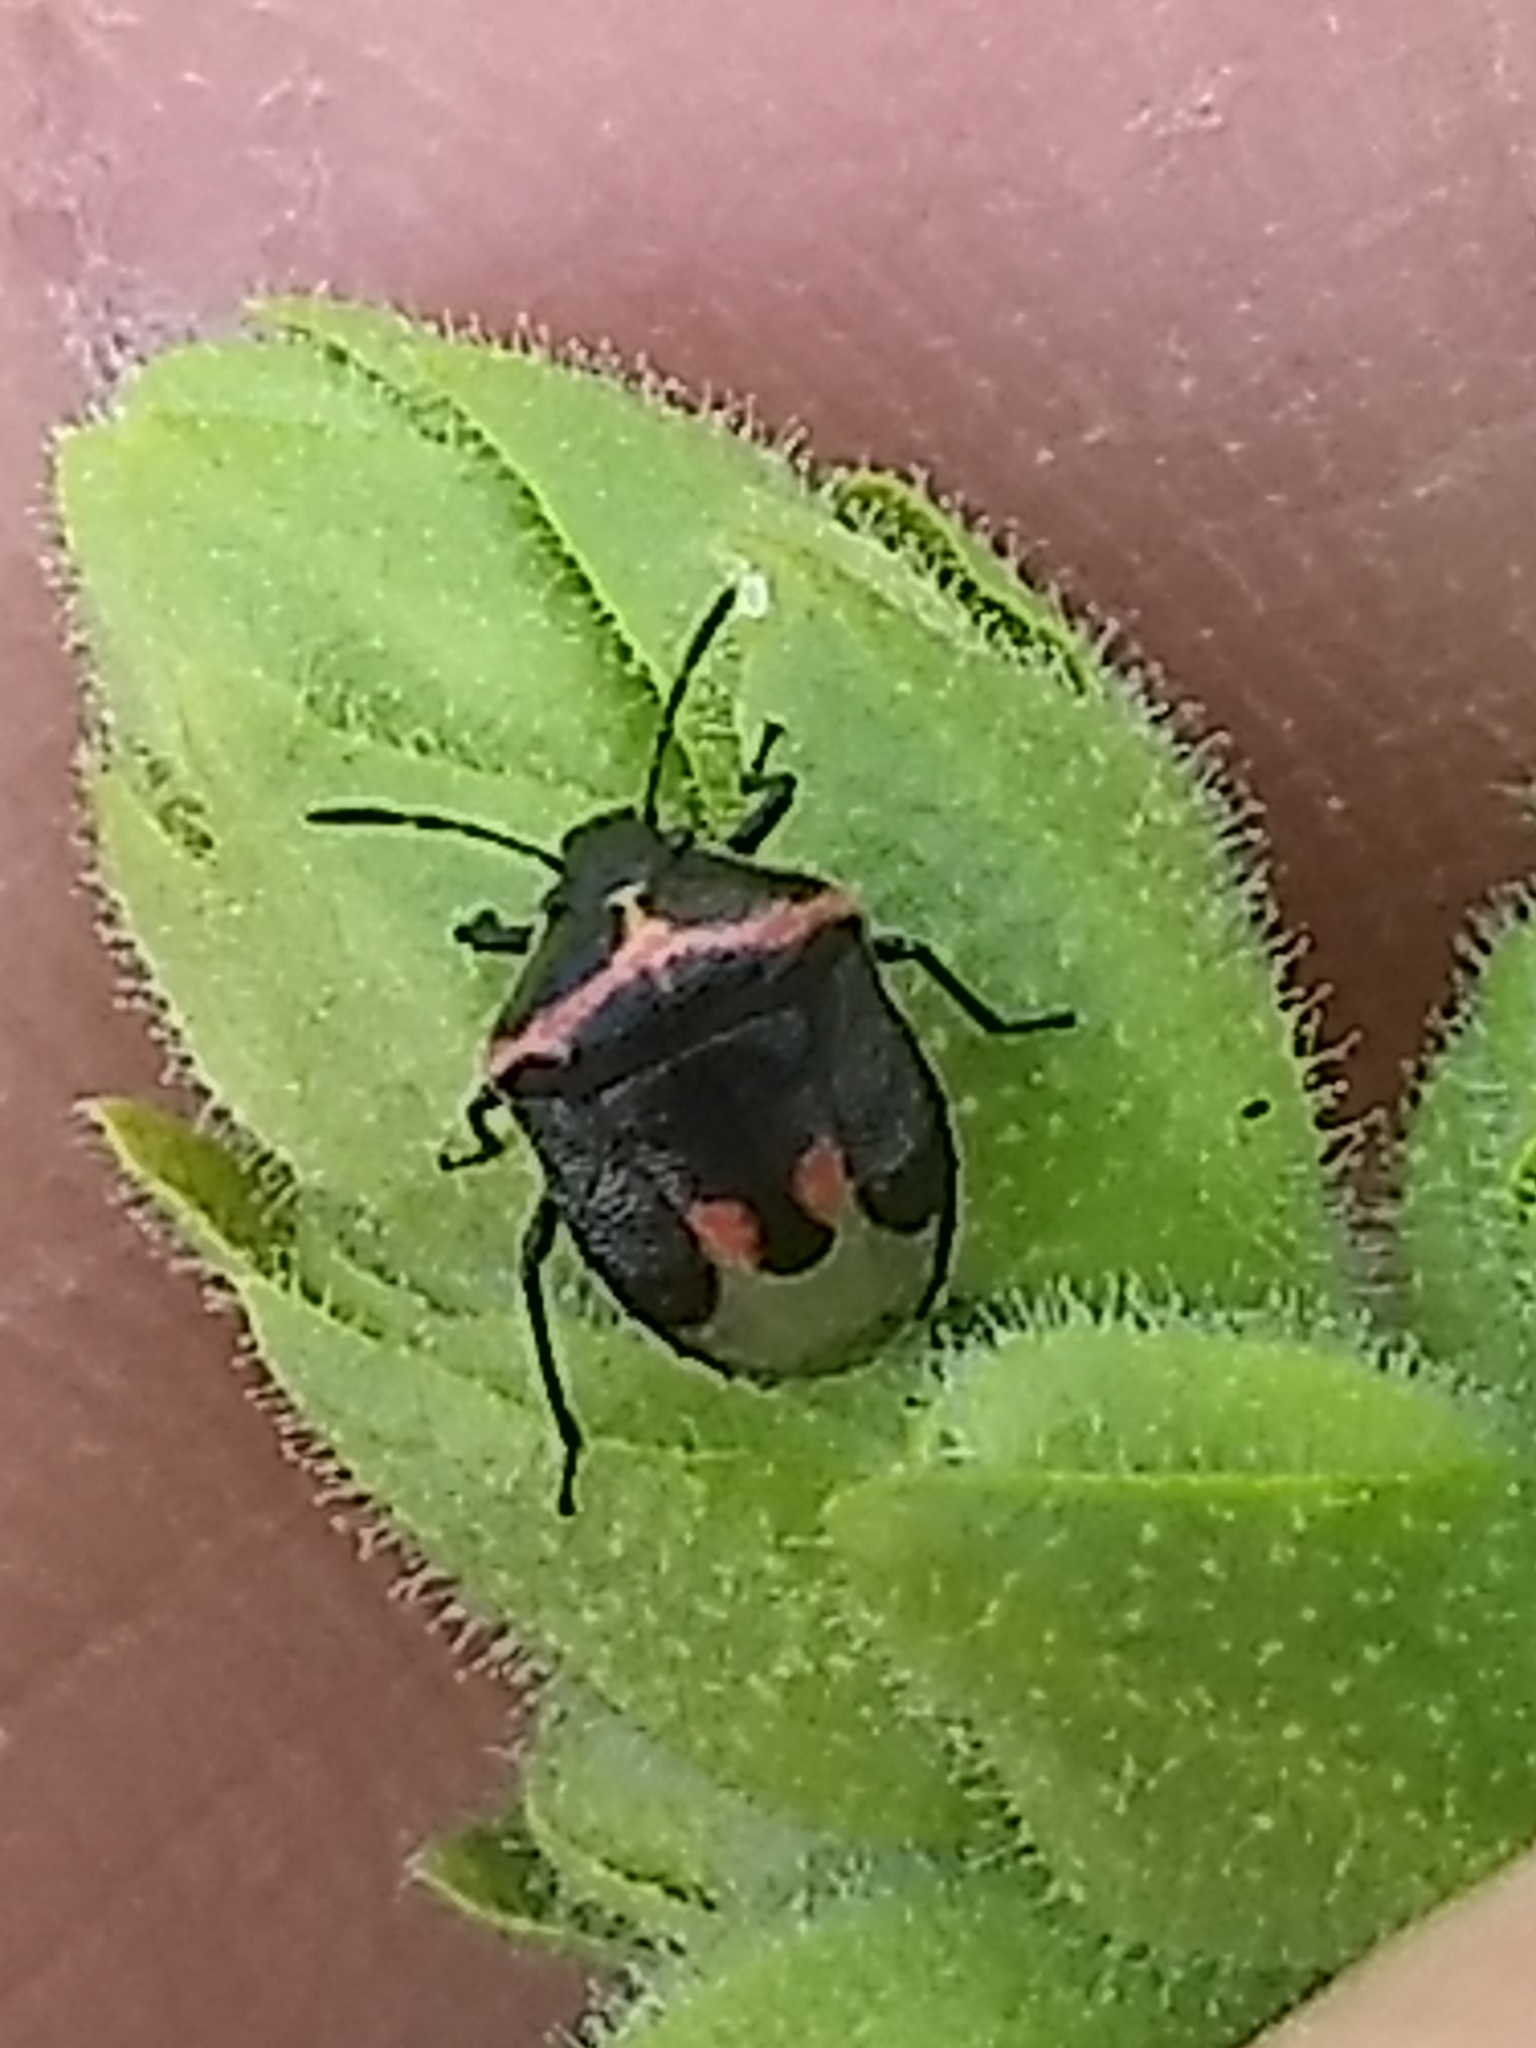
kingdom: Animalia
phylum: Arthropoda
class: Insecta
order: Hemiptera
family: Pentatomidae
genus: Cosmopepla
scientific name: Cosmopepla lintneriana
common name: Twice-stabbed stink bug
